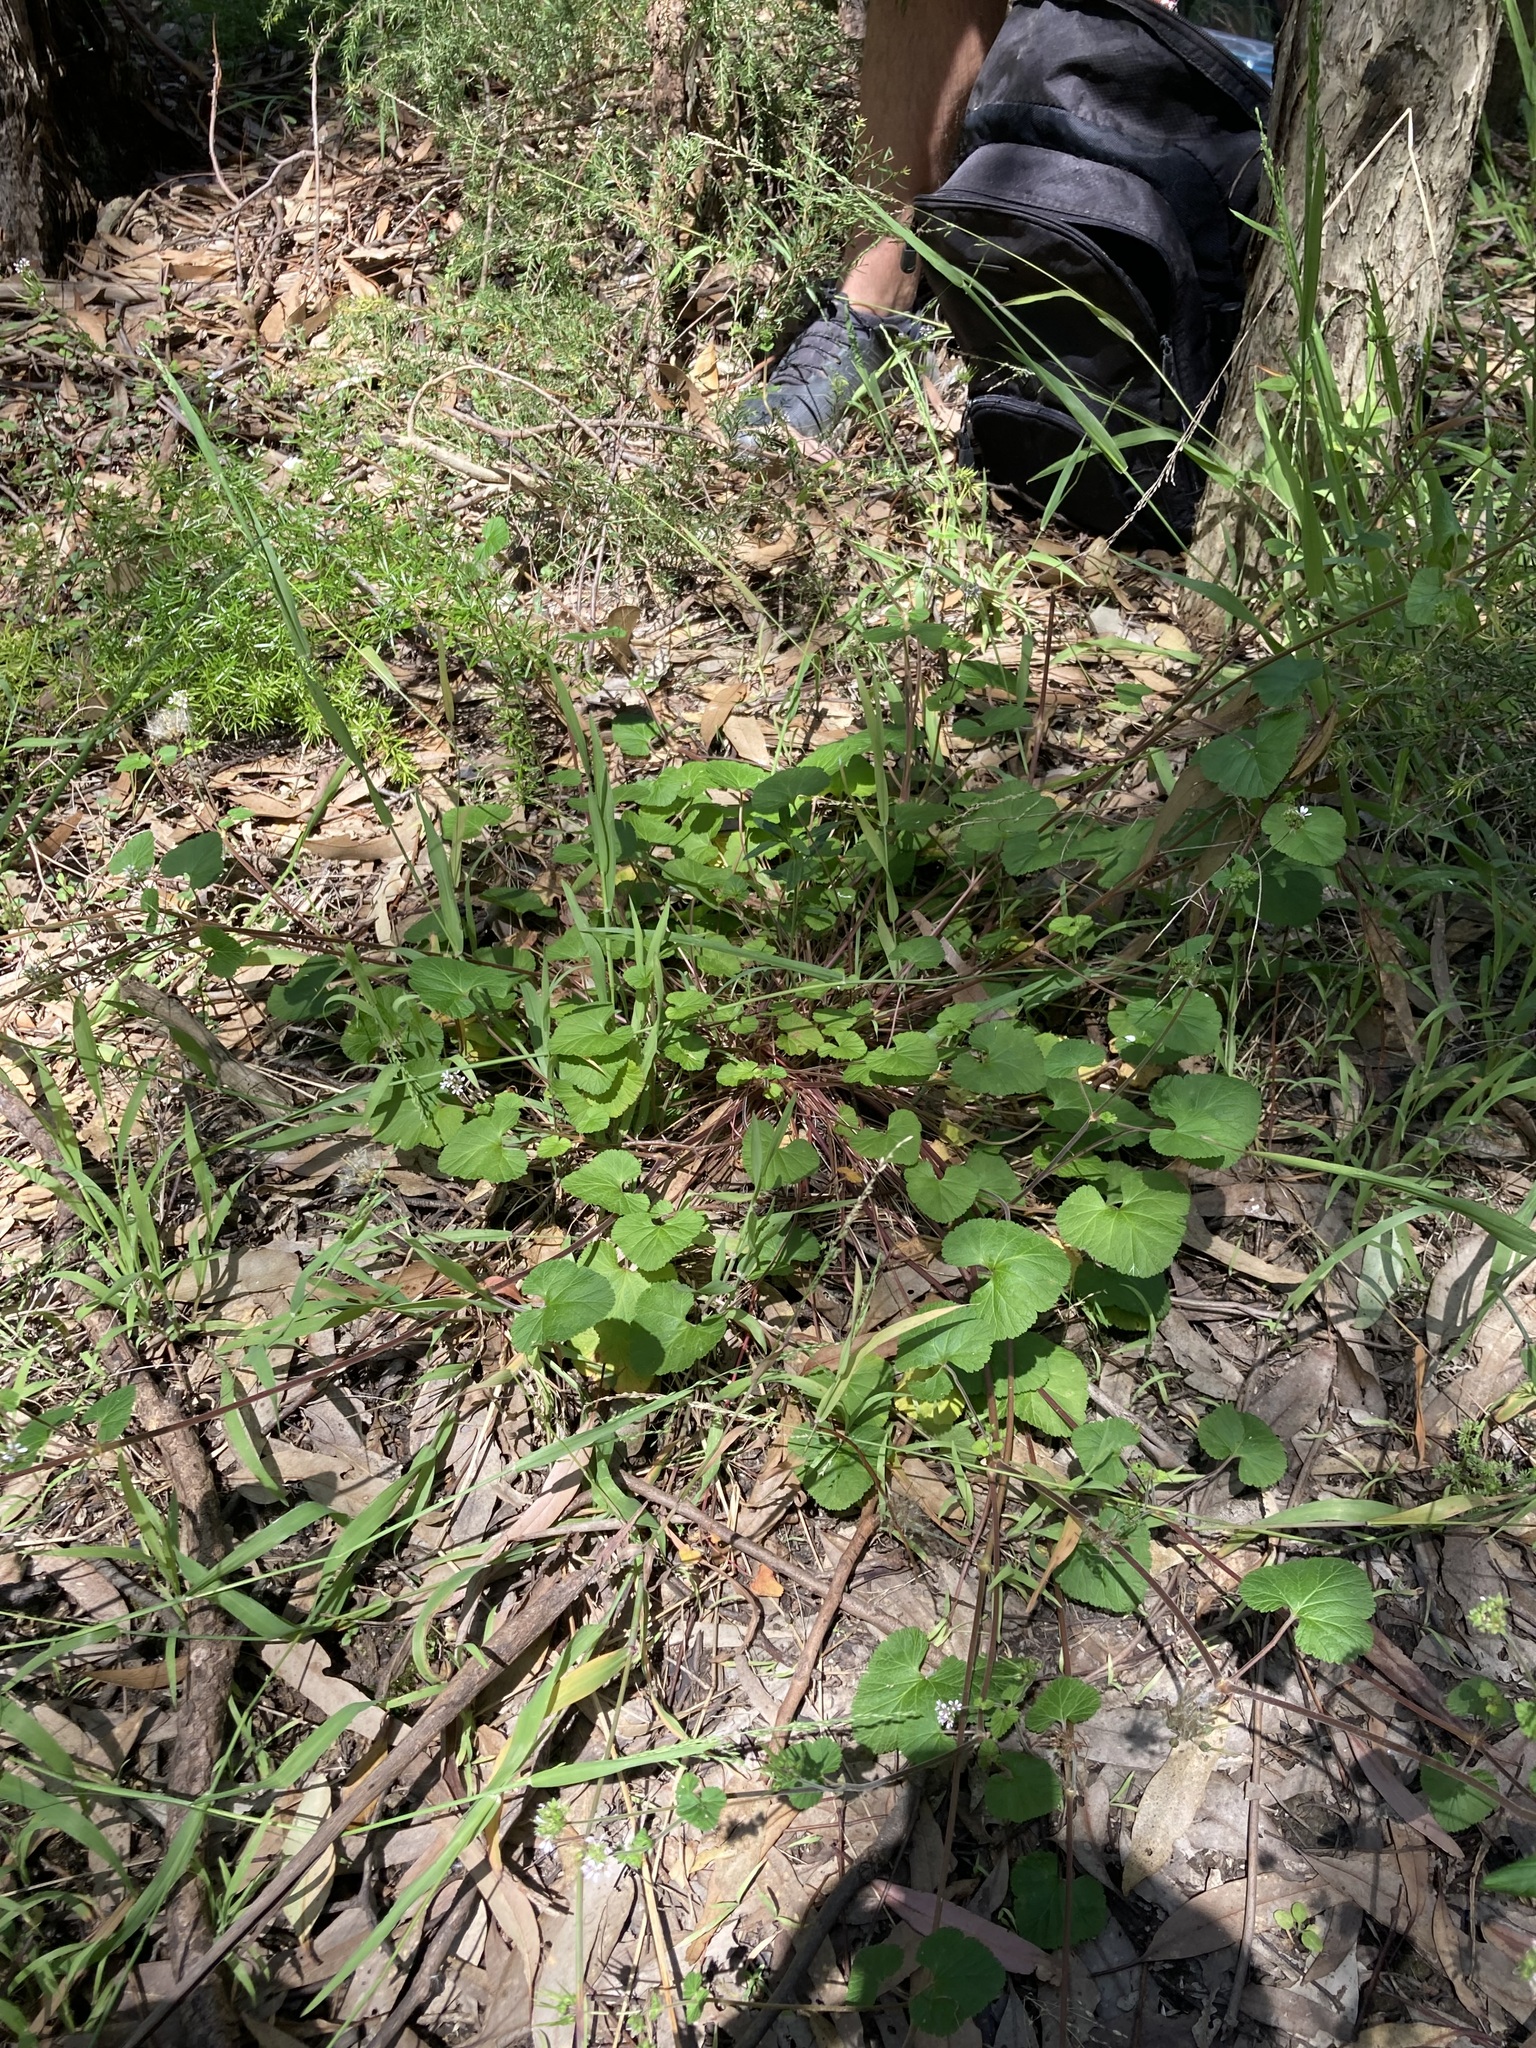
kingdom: Plantae
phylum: Tracheophyta
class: Magnoliopsida
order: Geraniales
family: Geraniaceae
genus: Pelargonium
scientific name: Pelargonium inodorum
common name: Kopata geranium
